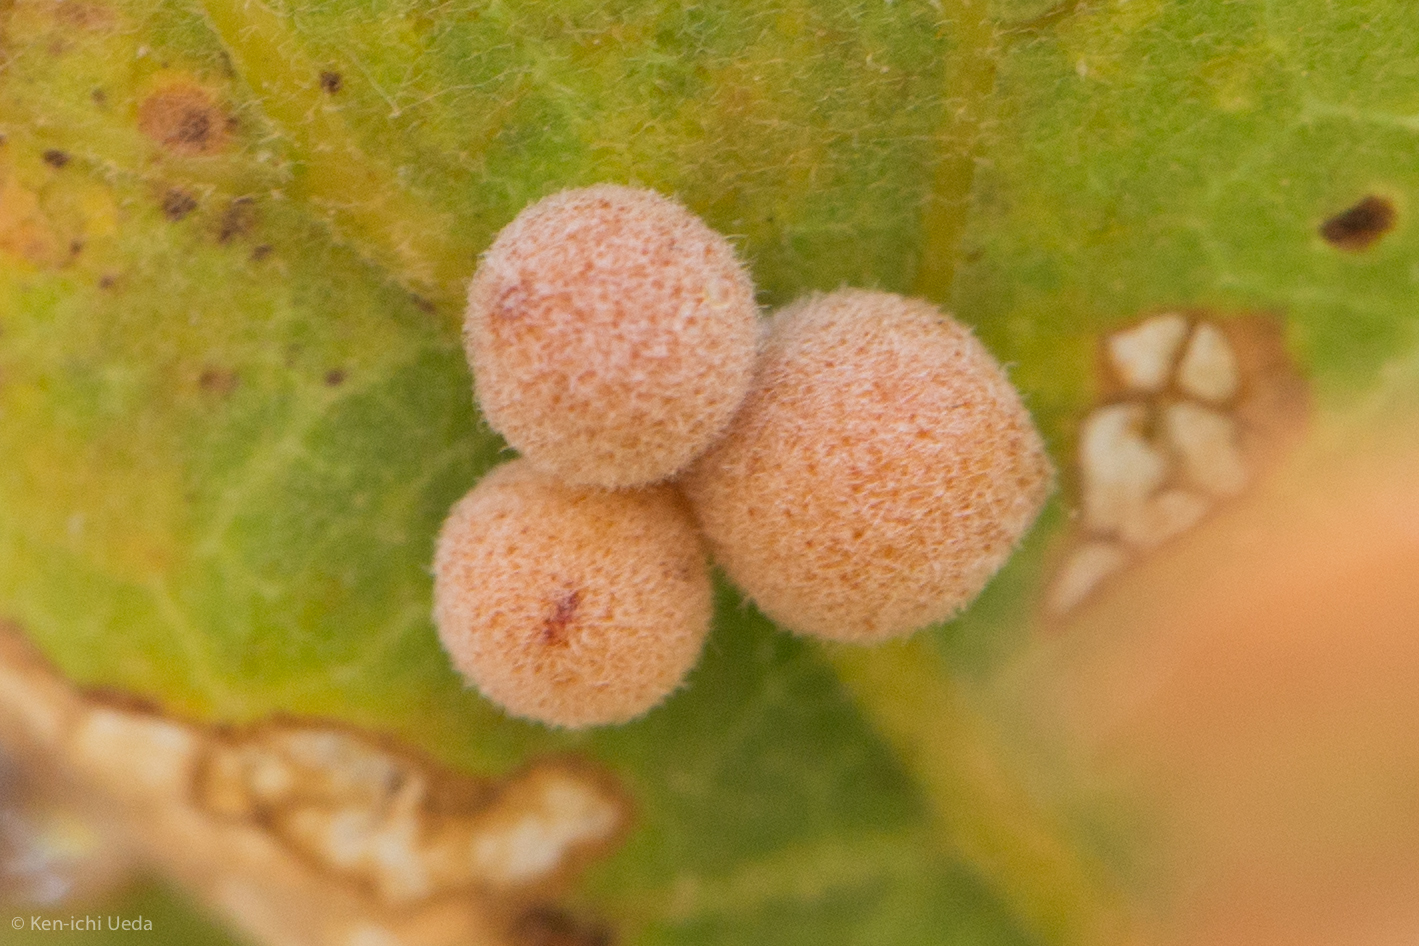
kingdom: Animalia
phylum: Arthropoda
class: Insecta
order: Hymenoptera
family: Cynipidae
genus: Andricus
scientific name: Andricus
